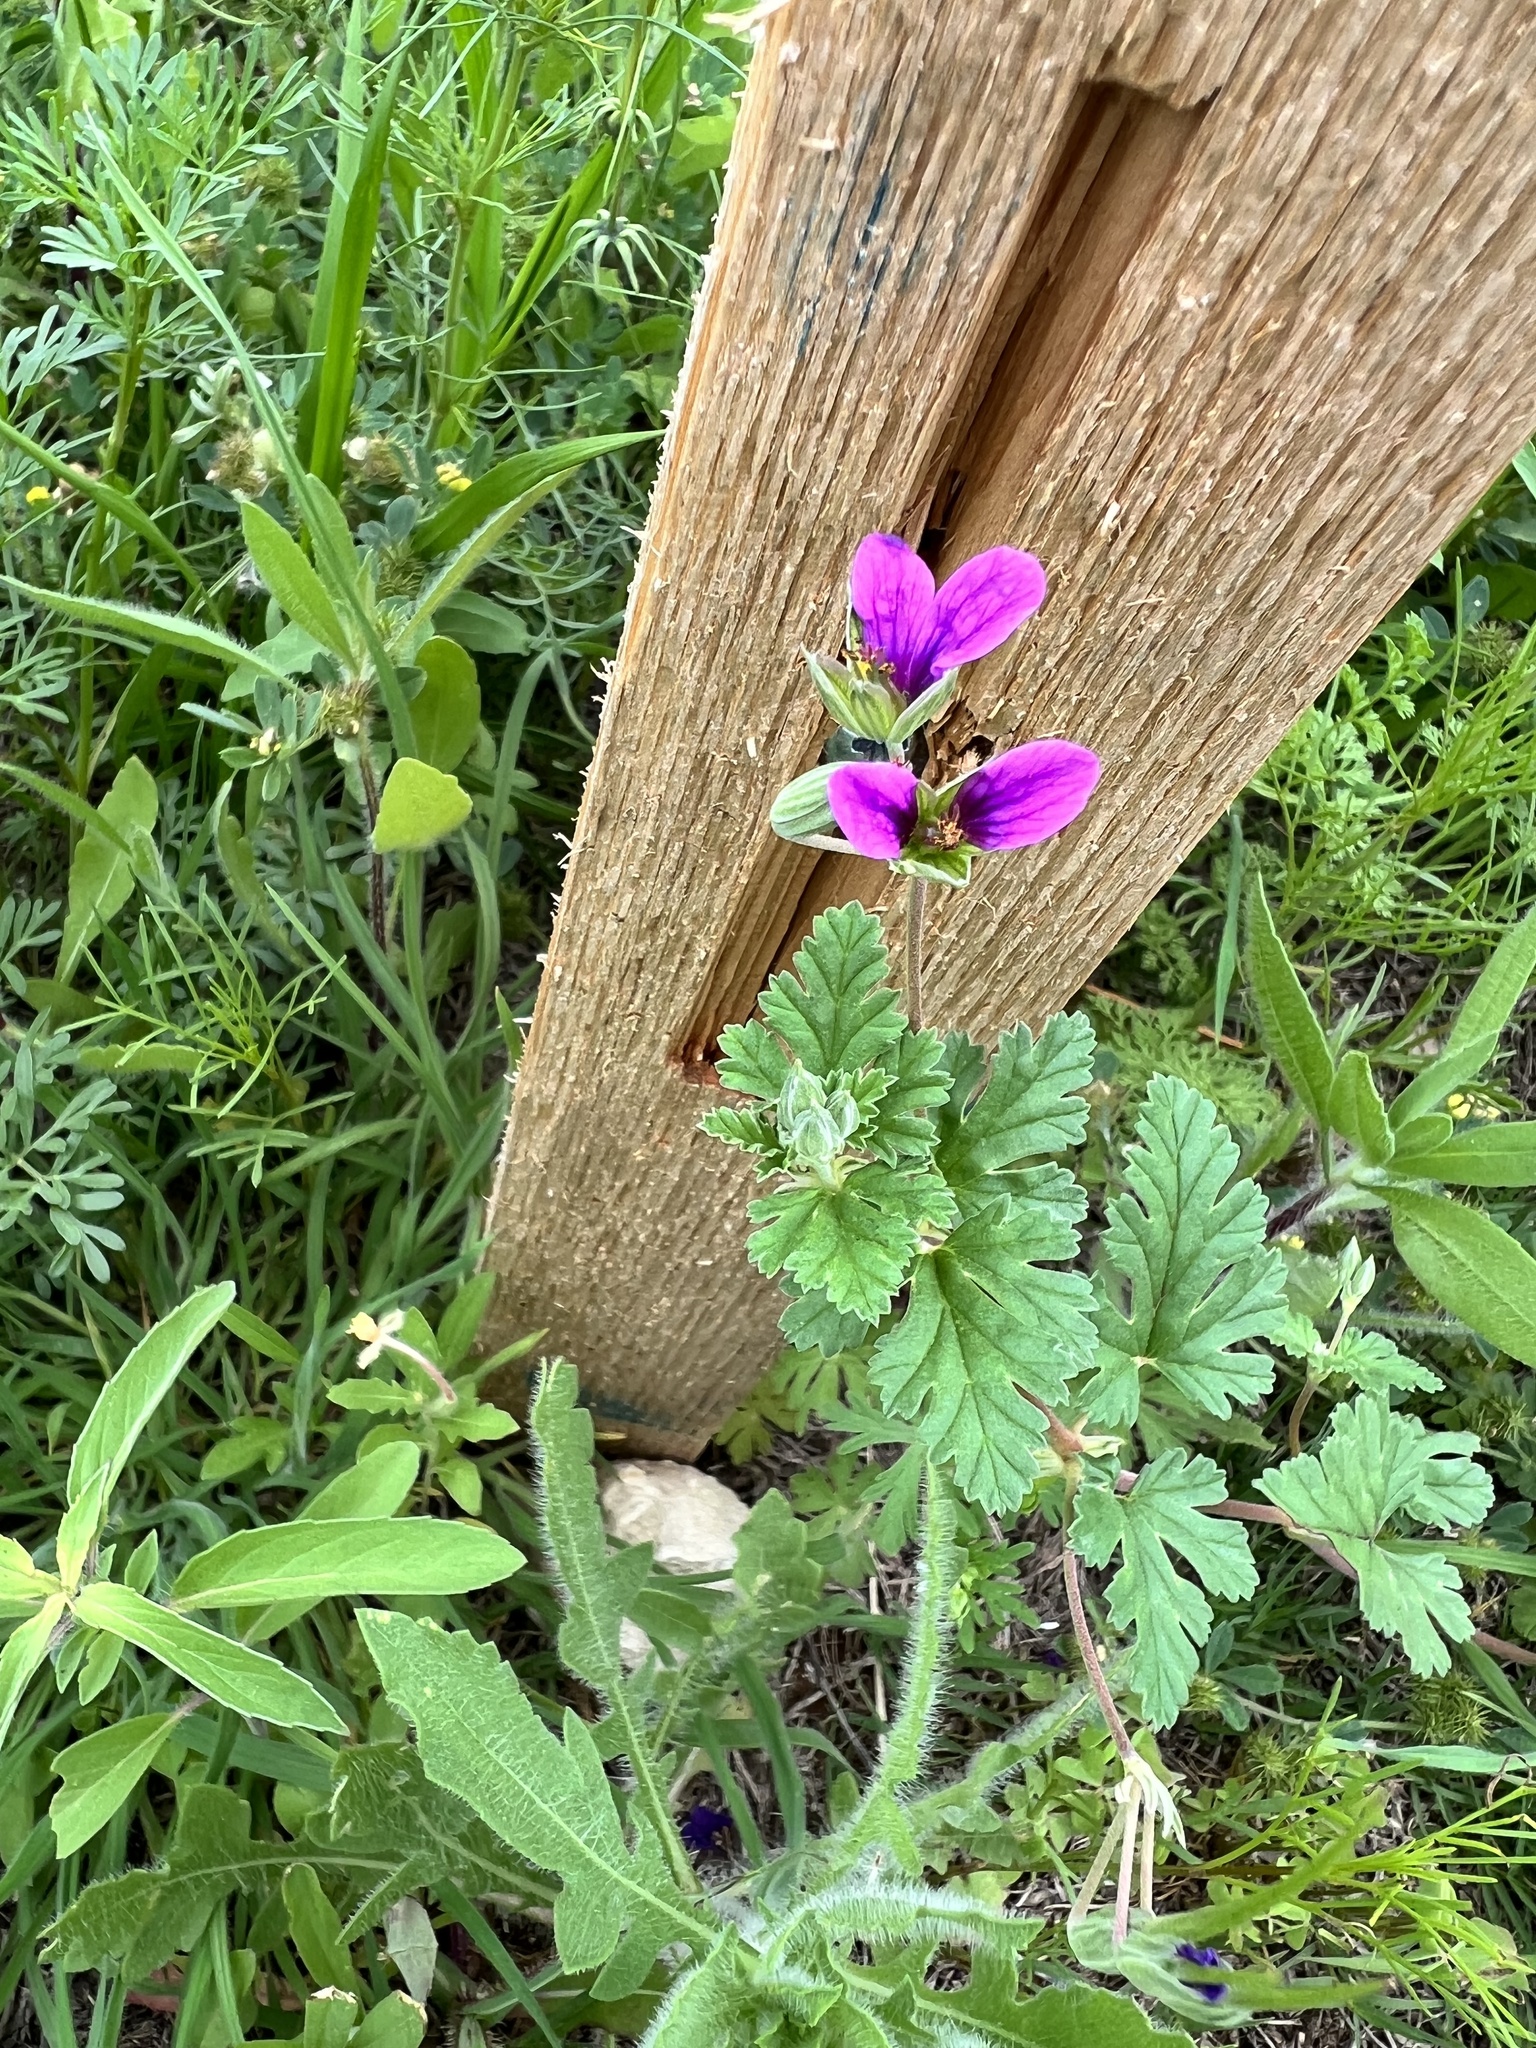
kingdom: Plantae
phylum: Tracheophyta
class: Magnoliopsida
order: Geraniales
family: Geraniaceae
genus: Erodium
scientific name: Erodium texanum
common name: Texas stork's-bill
